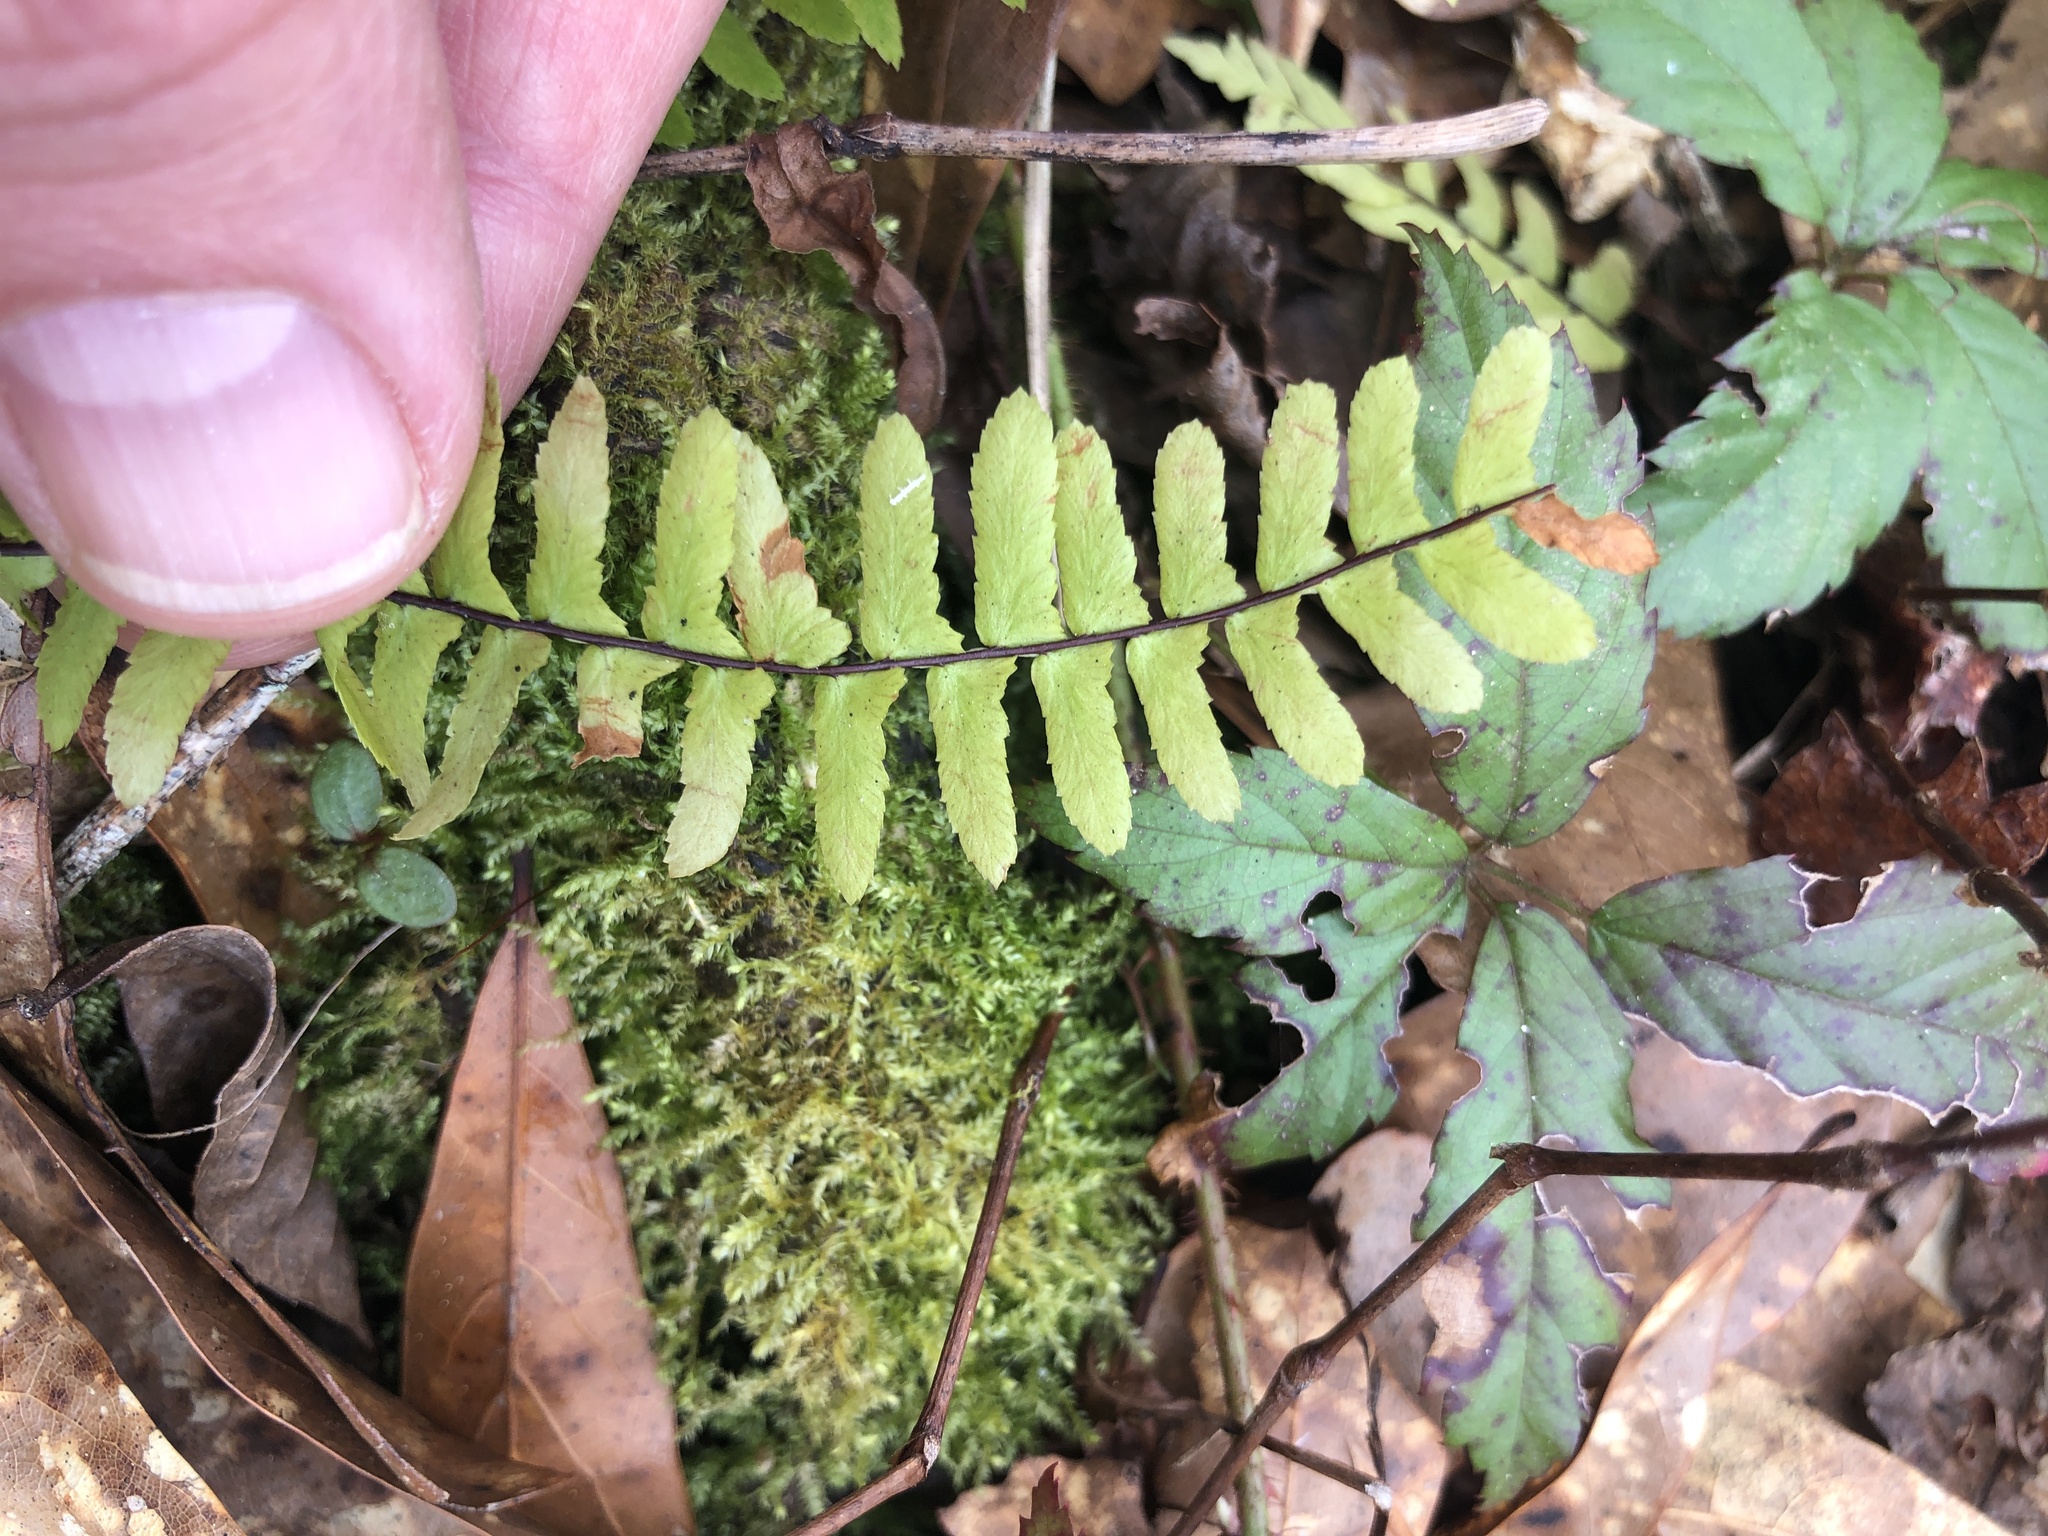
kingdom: Plantae
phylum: Tracheophyta
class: Polypodiopsida
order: Polypodiales
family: Aspleniaceae
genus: Asplenium
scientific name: Asplenium platyneuron
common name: Ebony spleenwort
